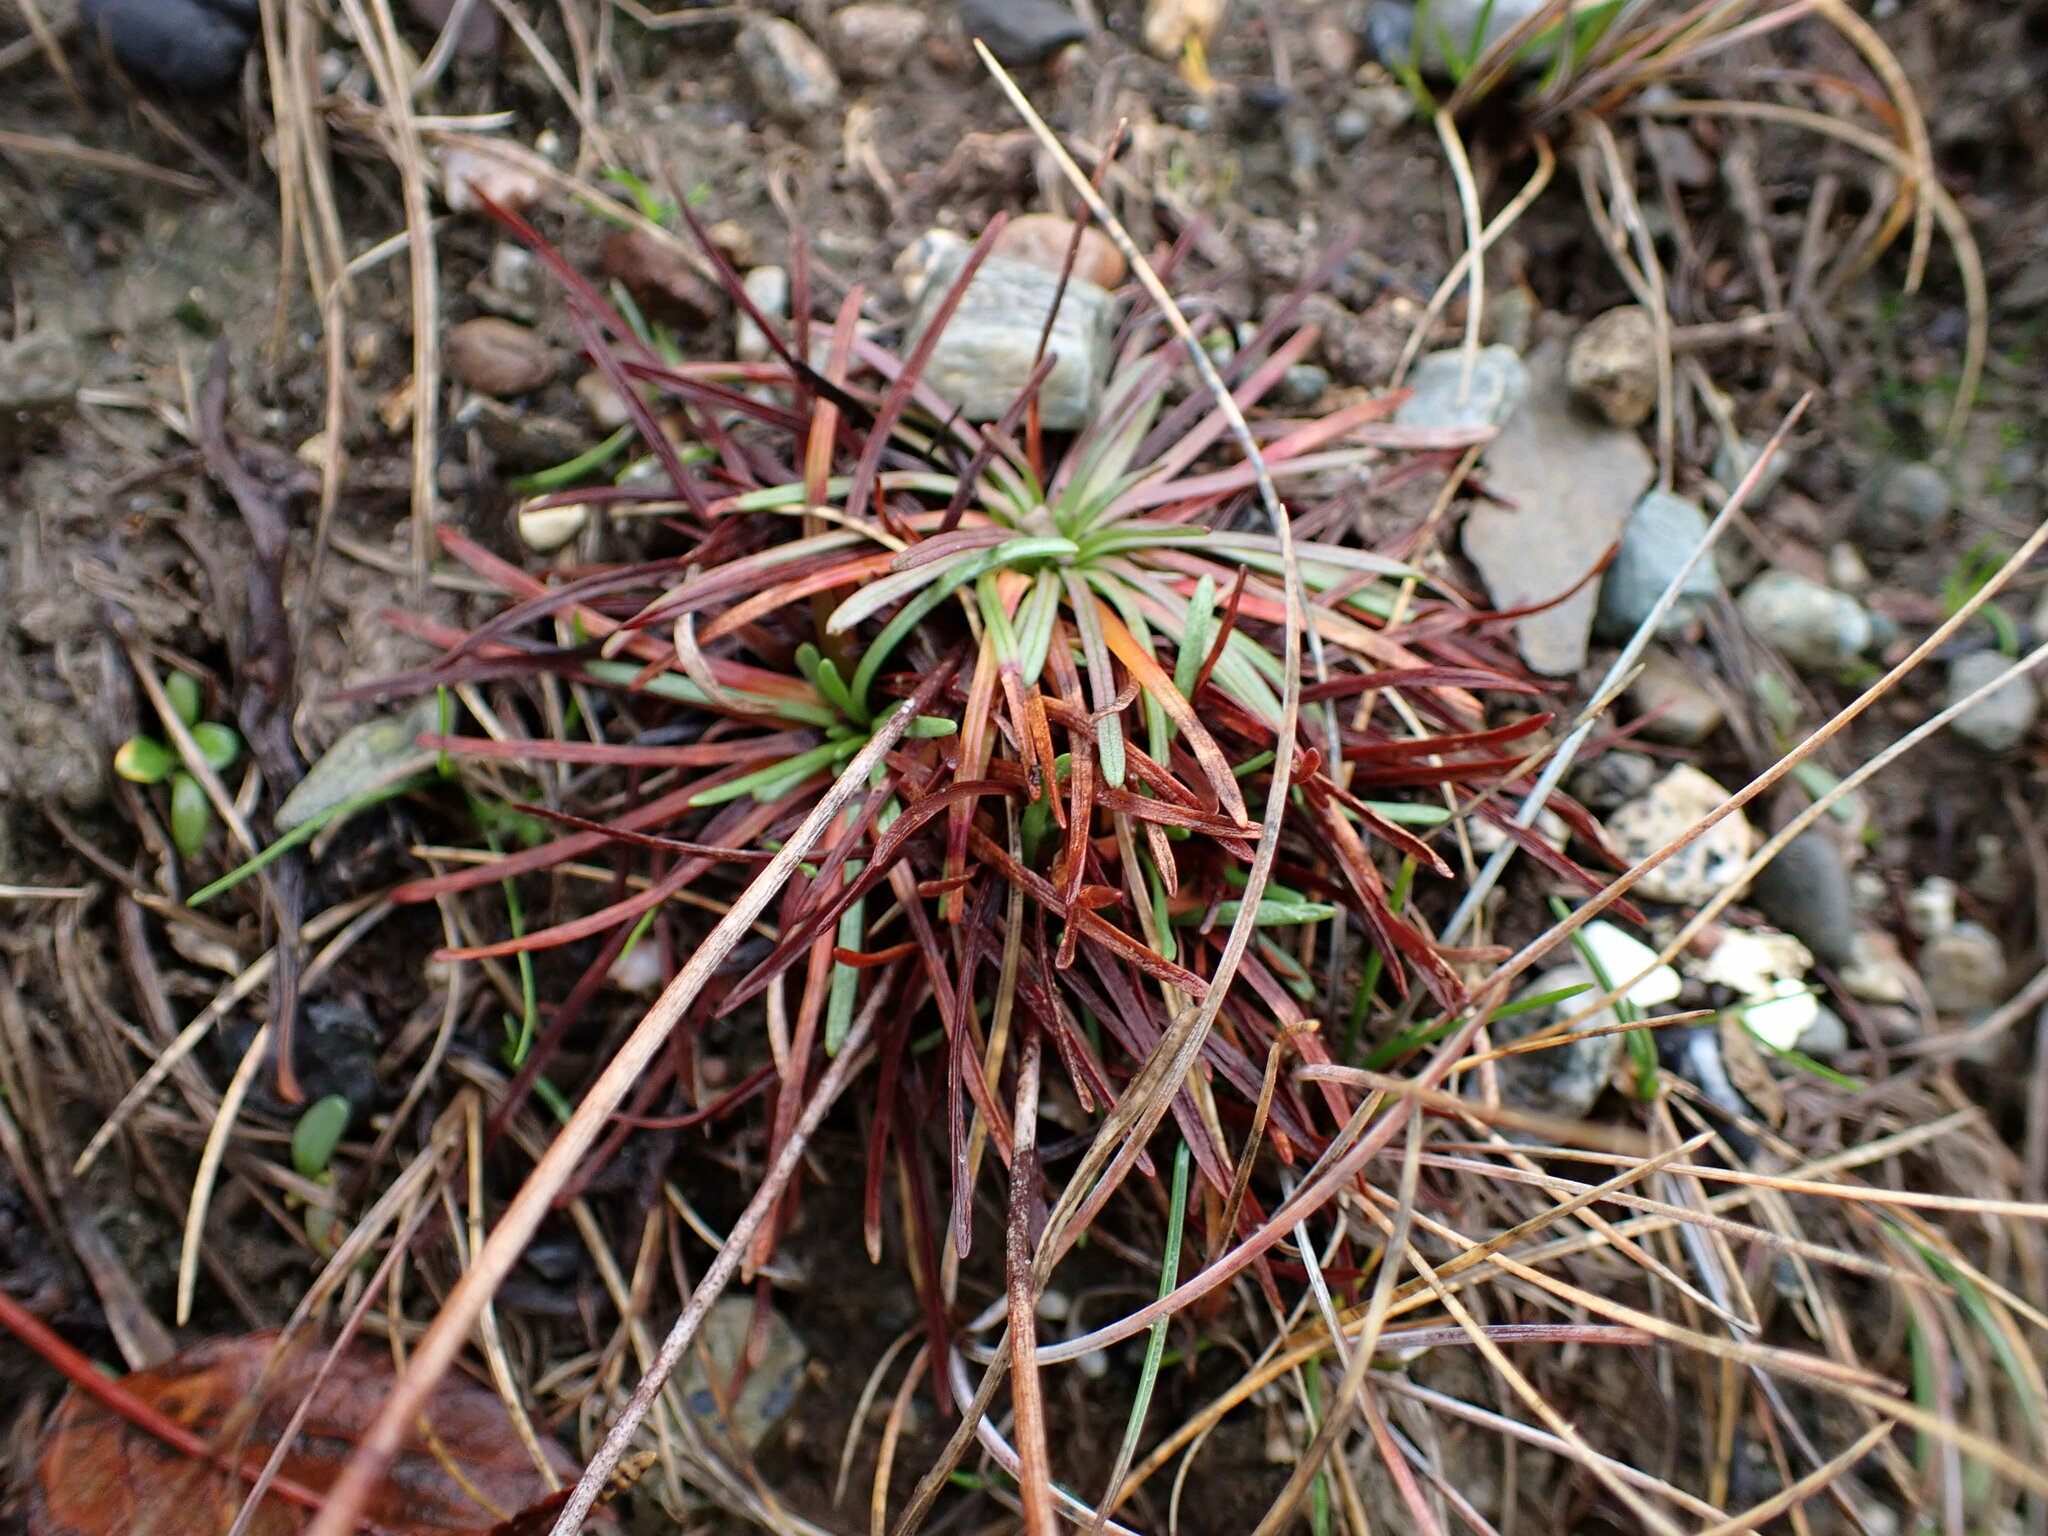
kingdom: Plantae
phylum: Tracheophyta
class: Magnoliopsida
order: Caryophyllales
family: Plumbaginaceae
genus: Armeria
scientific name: Armeria maritima
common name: Thrift
